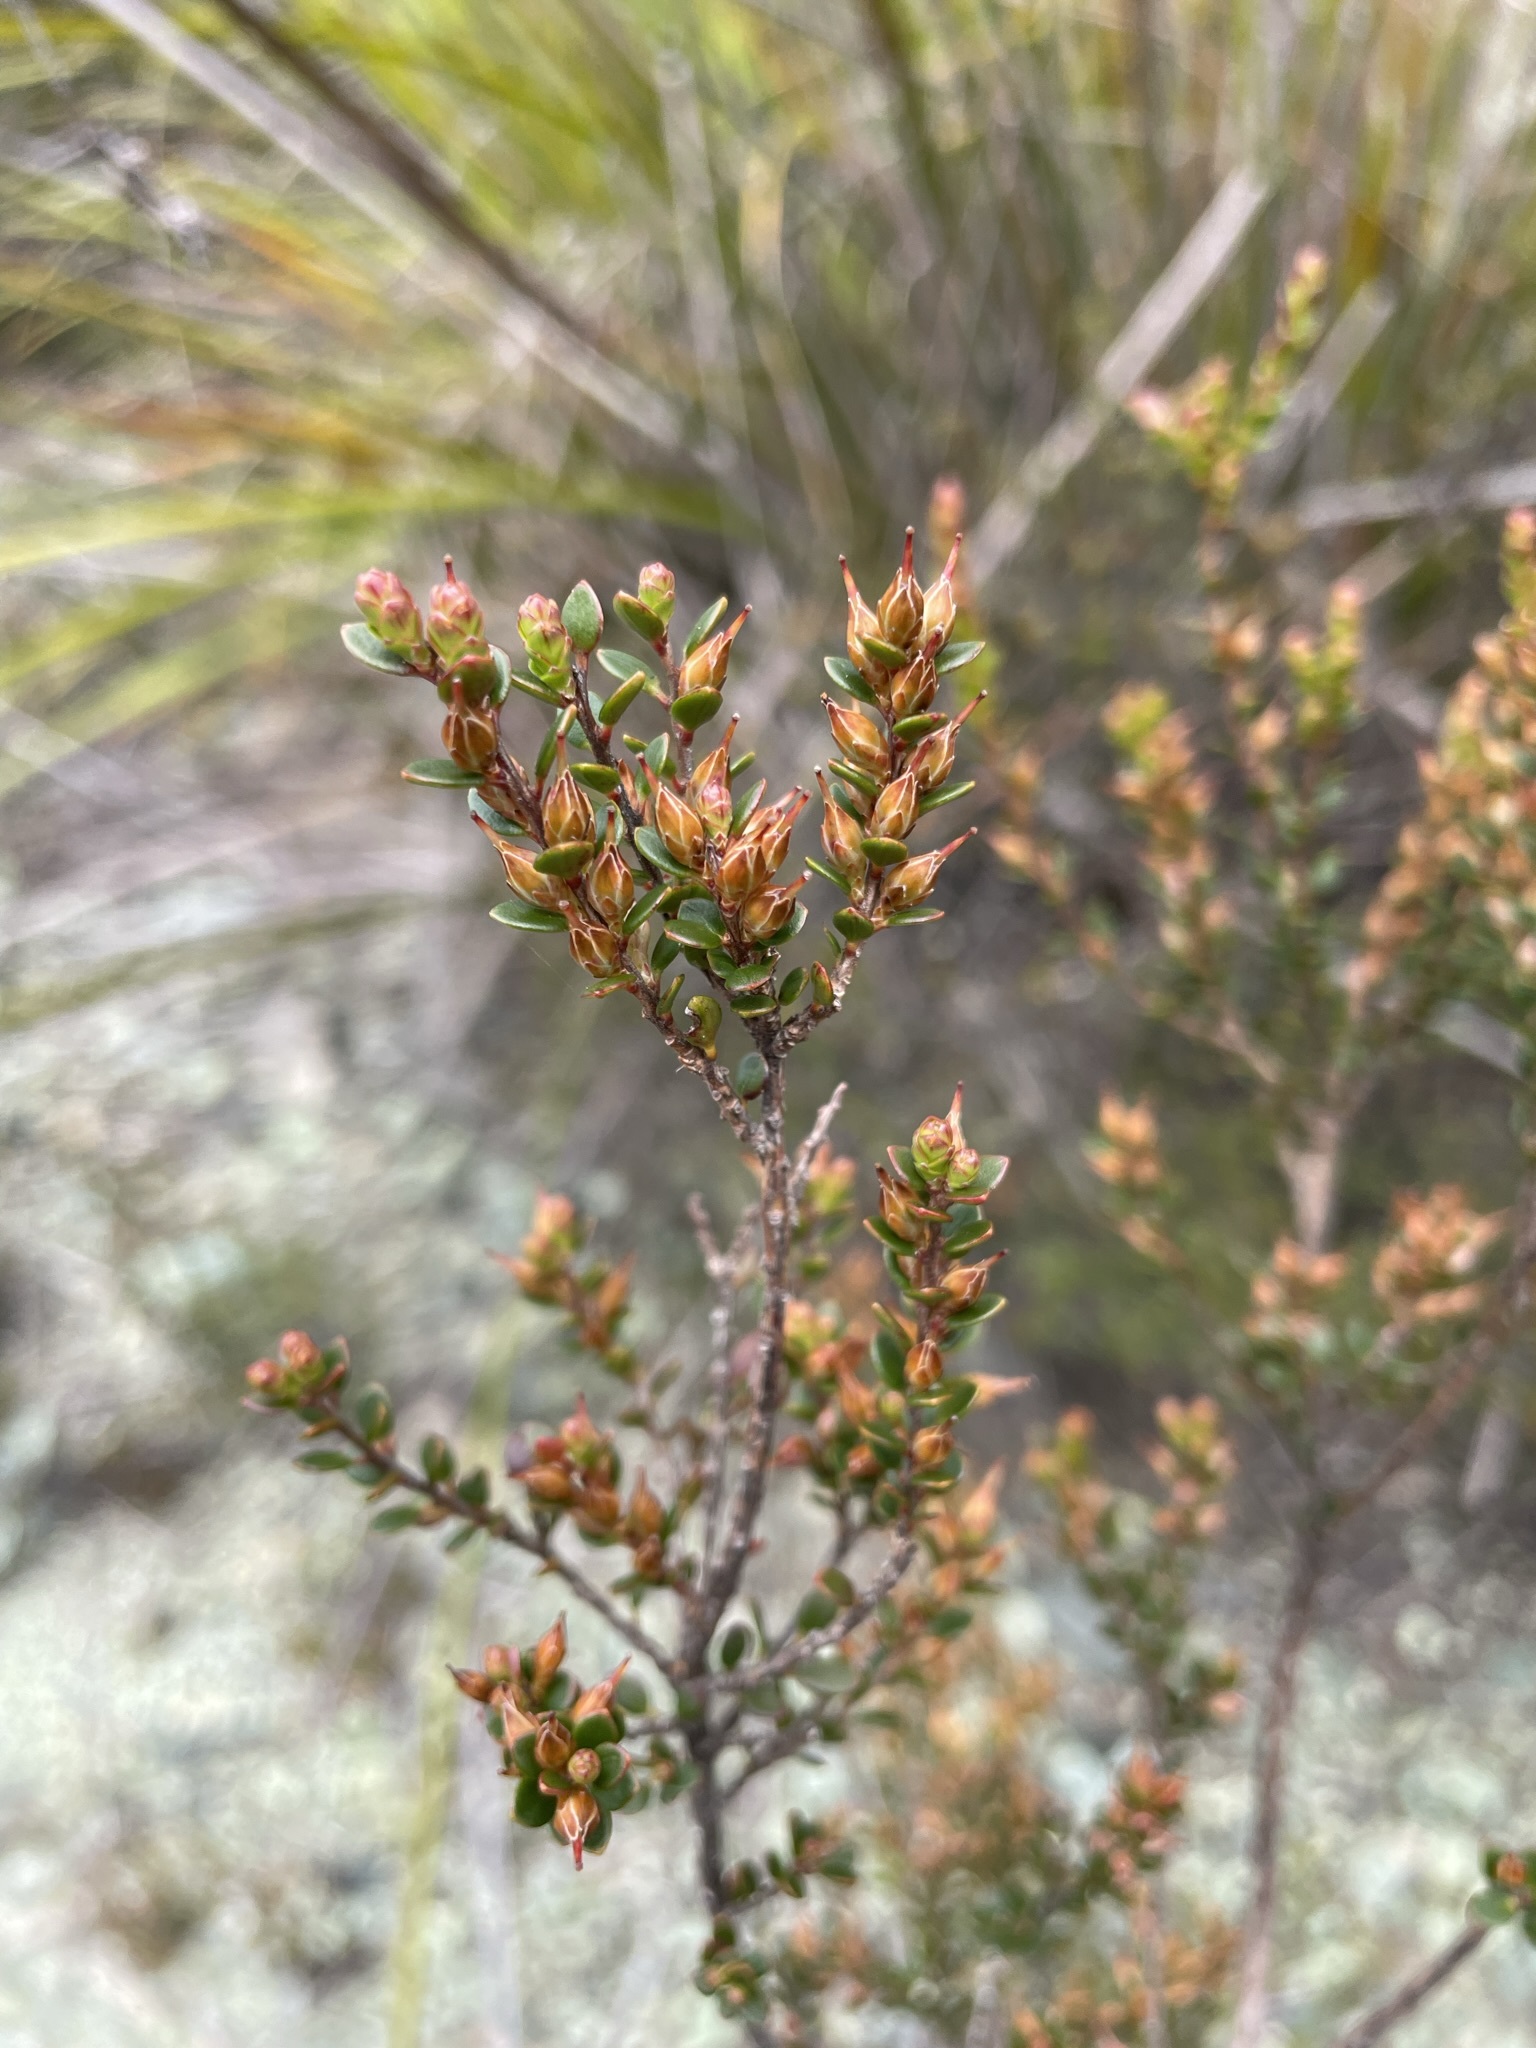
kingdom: Plantae
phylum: Tracheophyta
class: Magnoliopsida
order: Ericales
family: Ericaceae
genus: Epacris
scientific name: Epacris glabella
